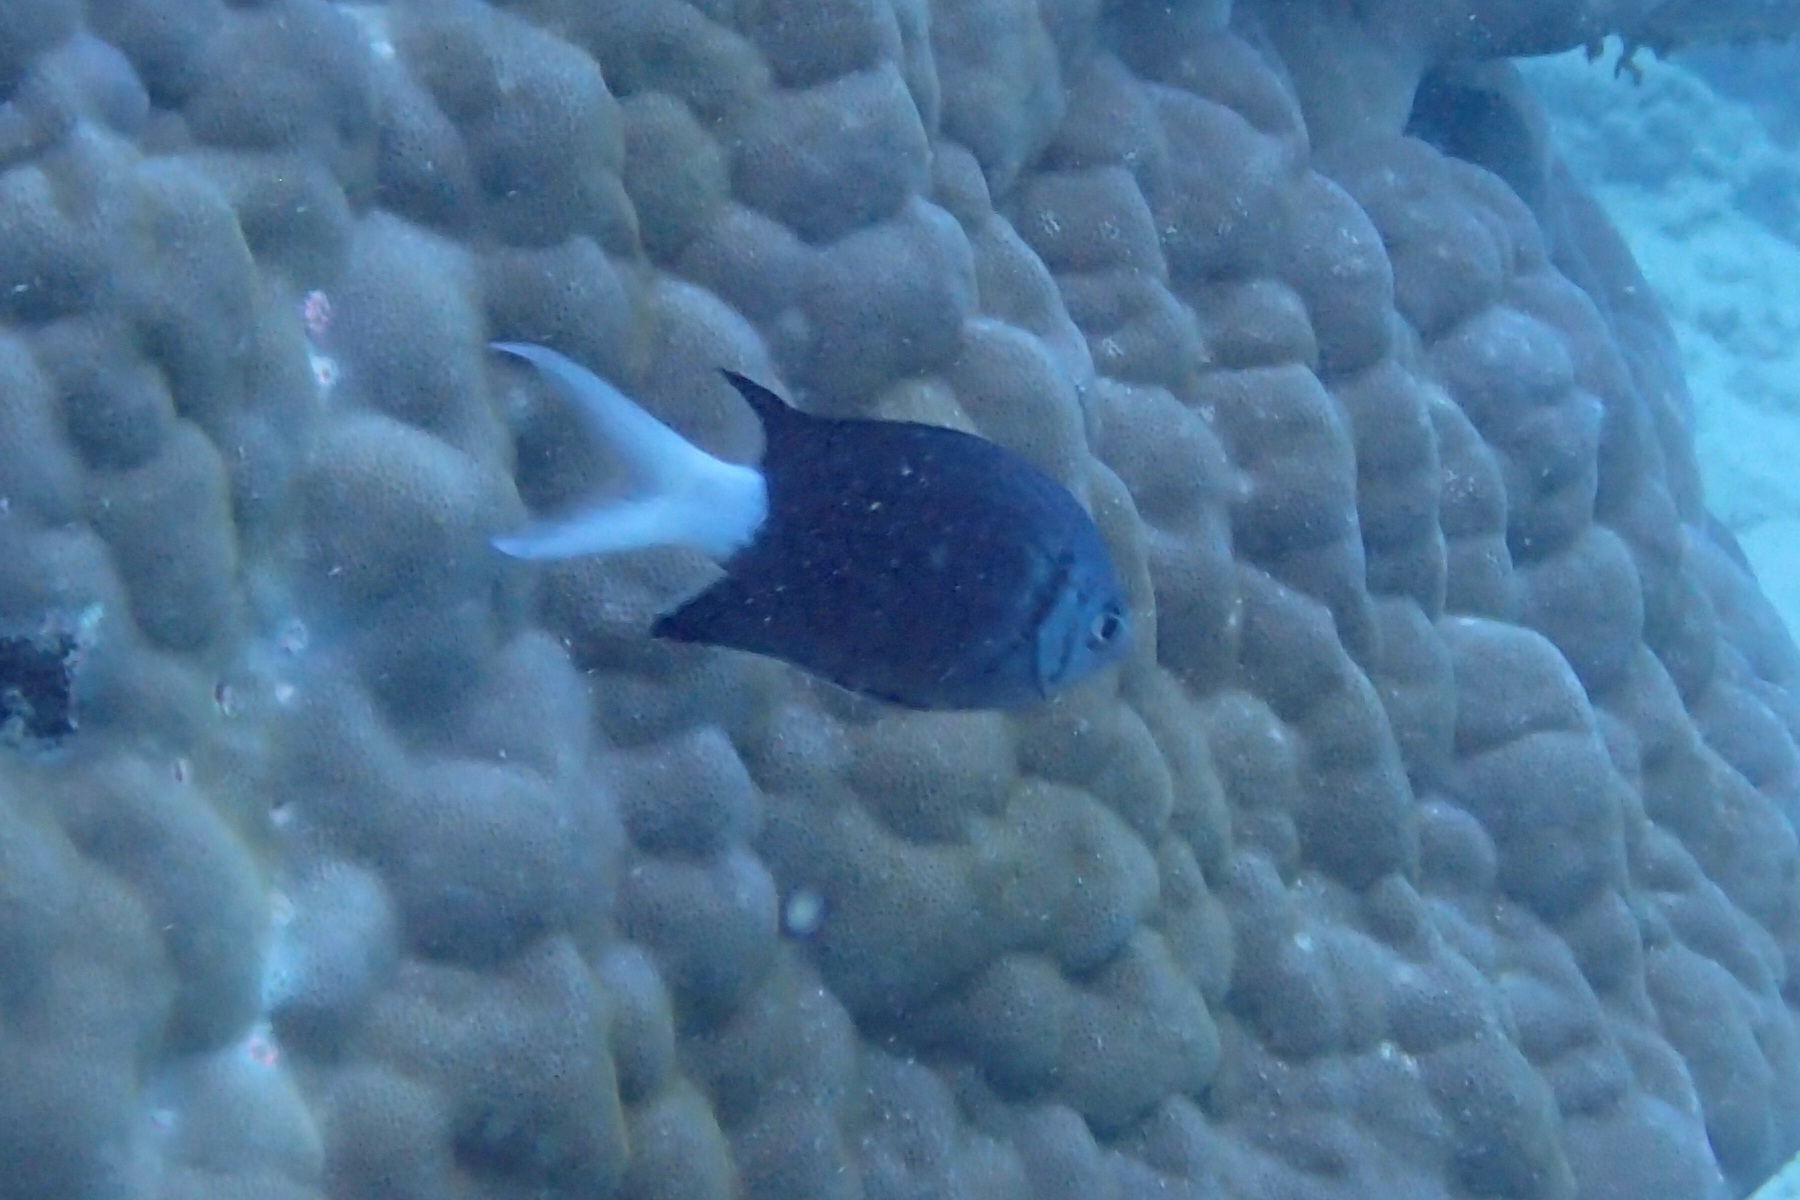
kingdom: Animalia
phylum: Chordata
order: Perciformes
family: Pomacentridae
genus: Chromis
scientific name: Chromis xanthura
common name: Black chromis
